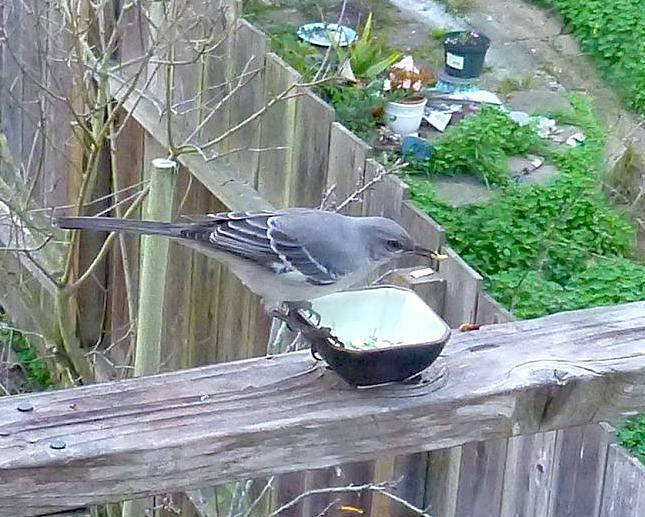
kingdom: Animalia
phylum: Chordata
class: Aves
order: Passeriformes
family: Mimidae
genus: Mimus
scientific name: Mimus polyglottos
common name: Northern mockingbird
